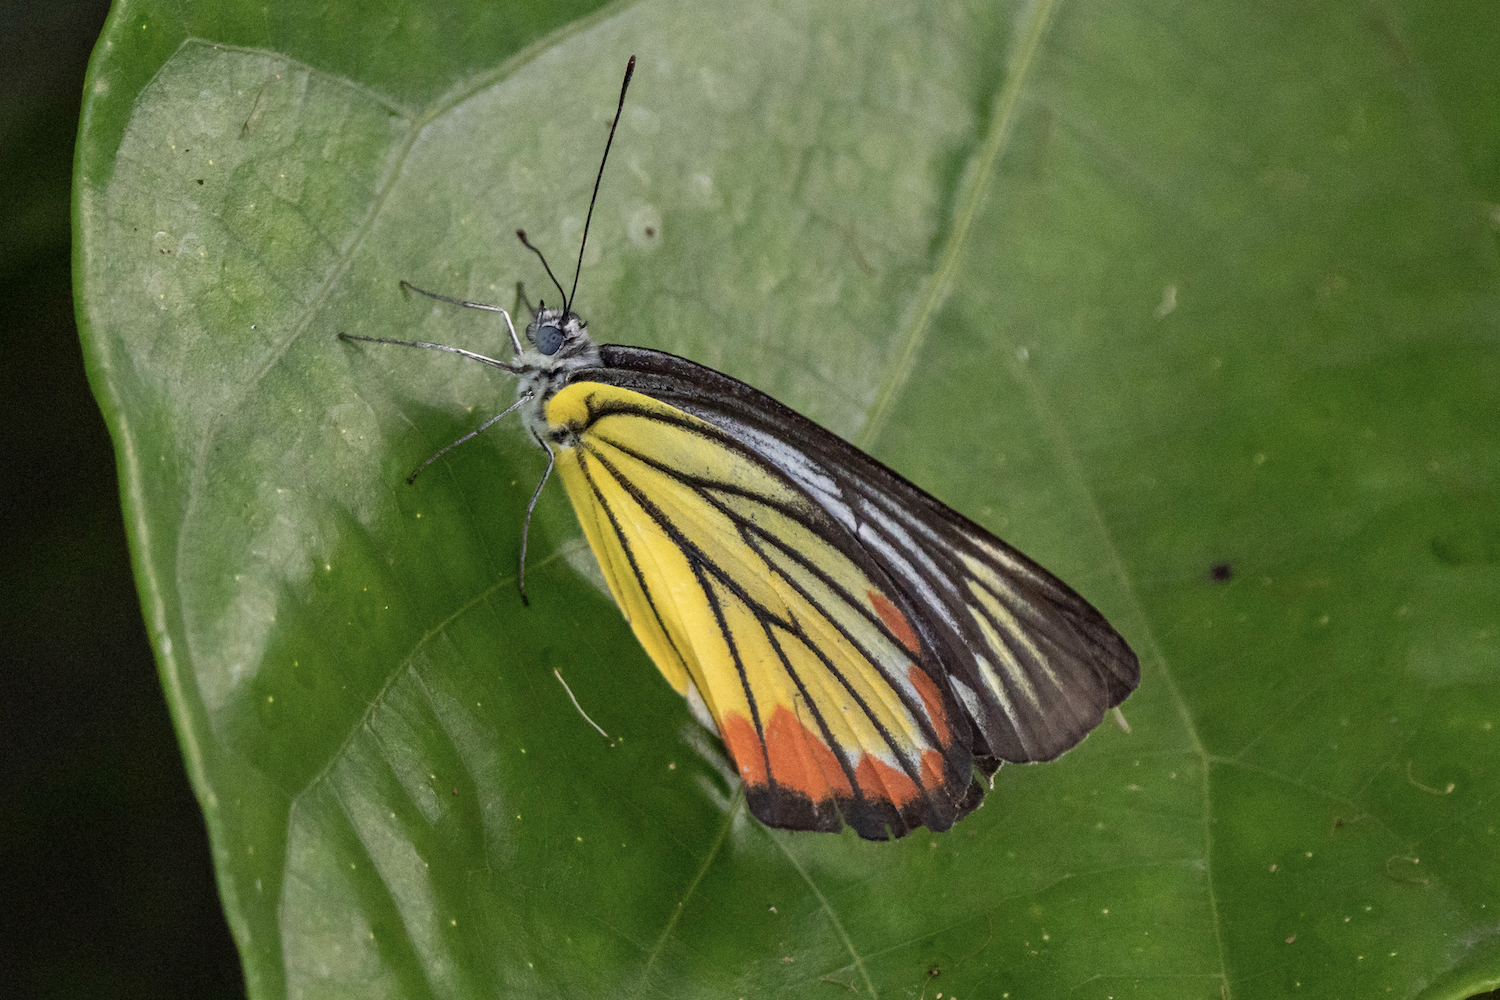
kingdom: Animalia
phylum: Arthropoda
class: Insecta
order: Lepidoptera
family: Pieridae
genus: Delias
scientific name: Delias hyparete
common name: Painted jezebel
